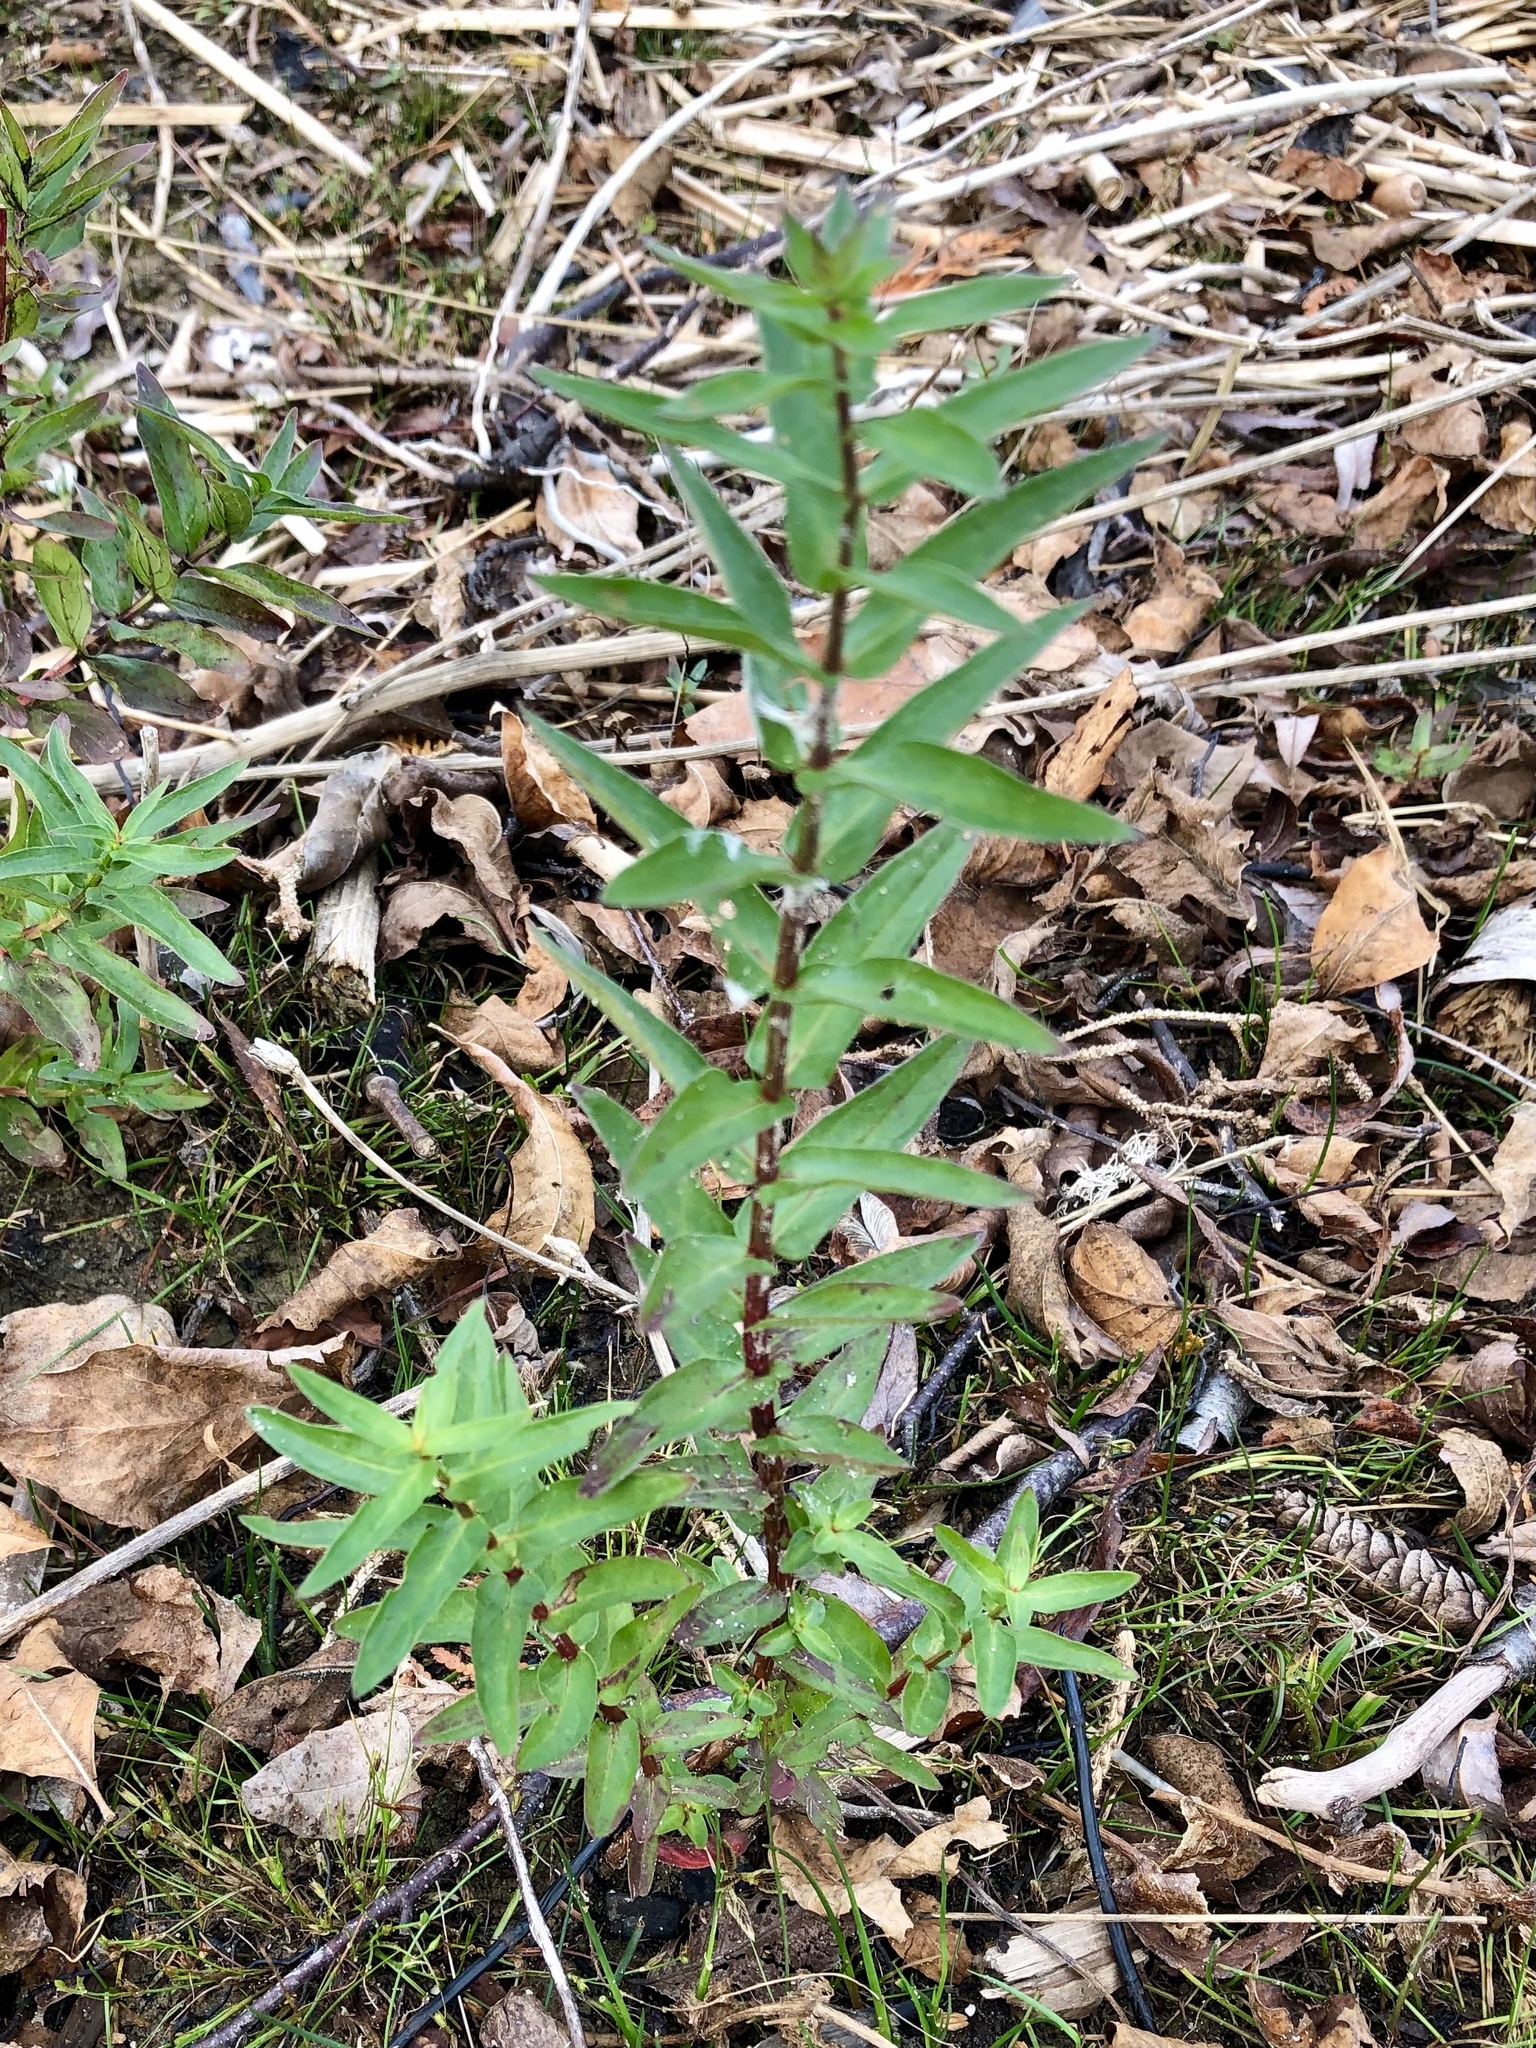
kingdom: Plantae
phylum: Tracheophyta
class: Magnoliopsida
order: Asterales
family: Asteraceae
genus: Symphyotrichum
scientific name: Symphyotrichum novae-angliae
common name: Michaelmas daisy
